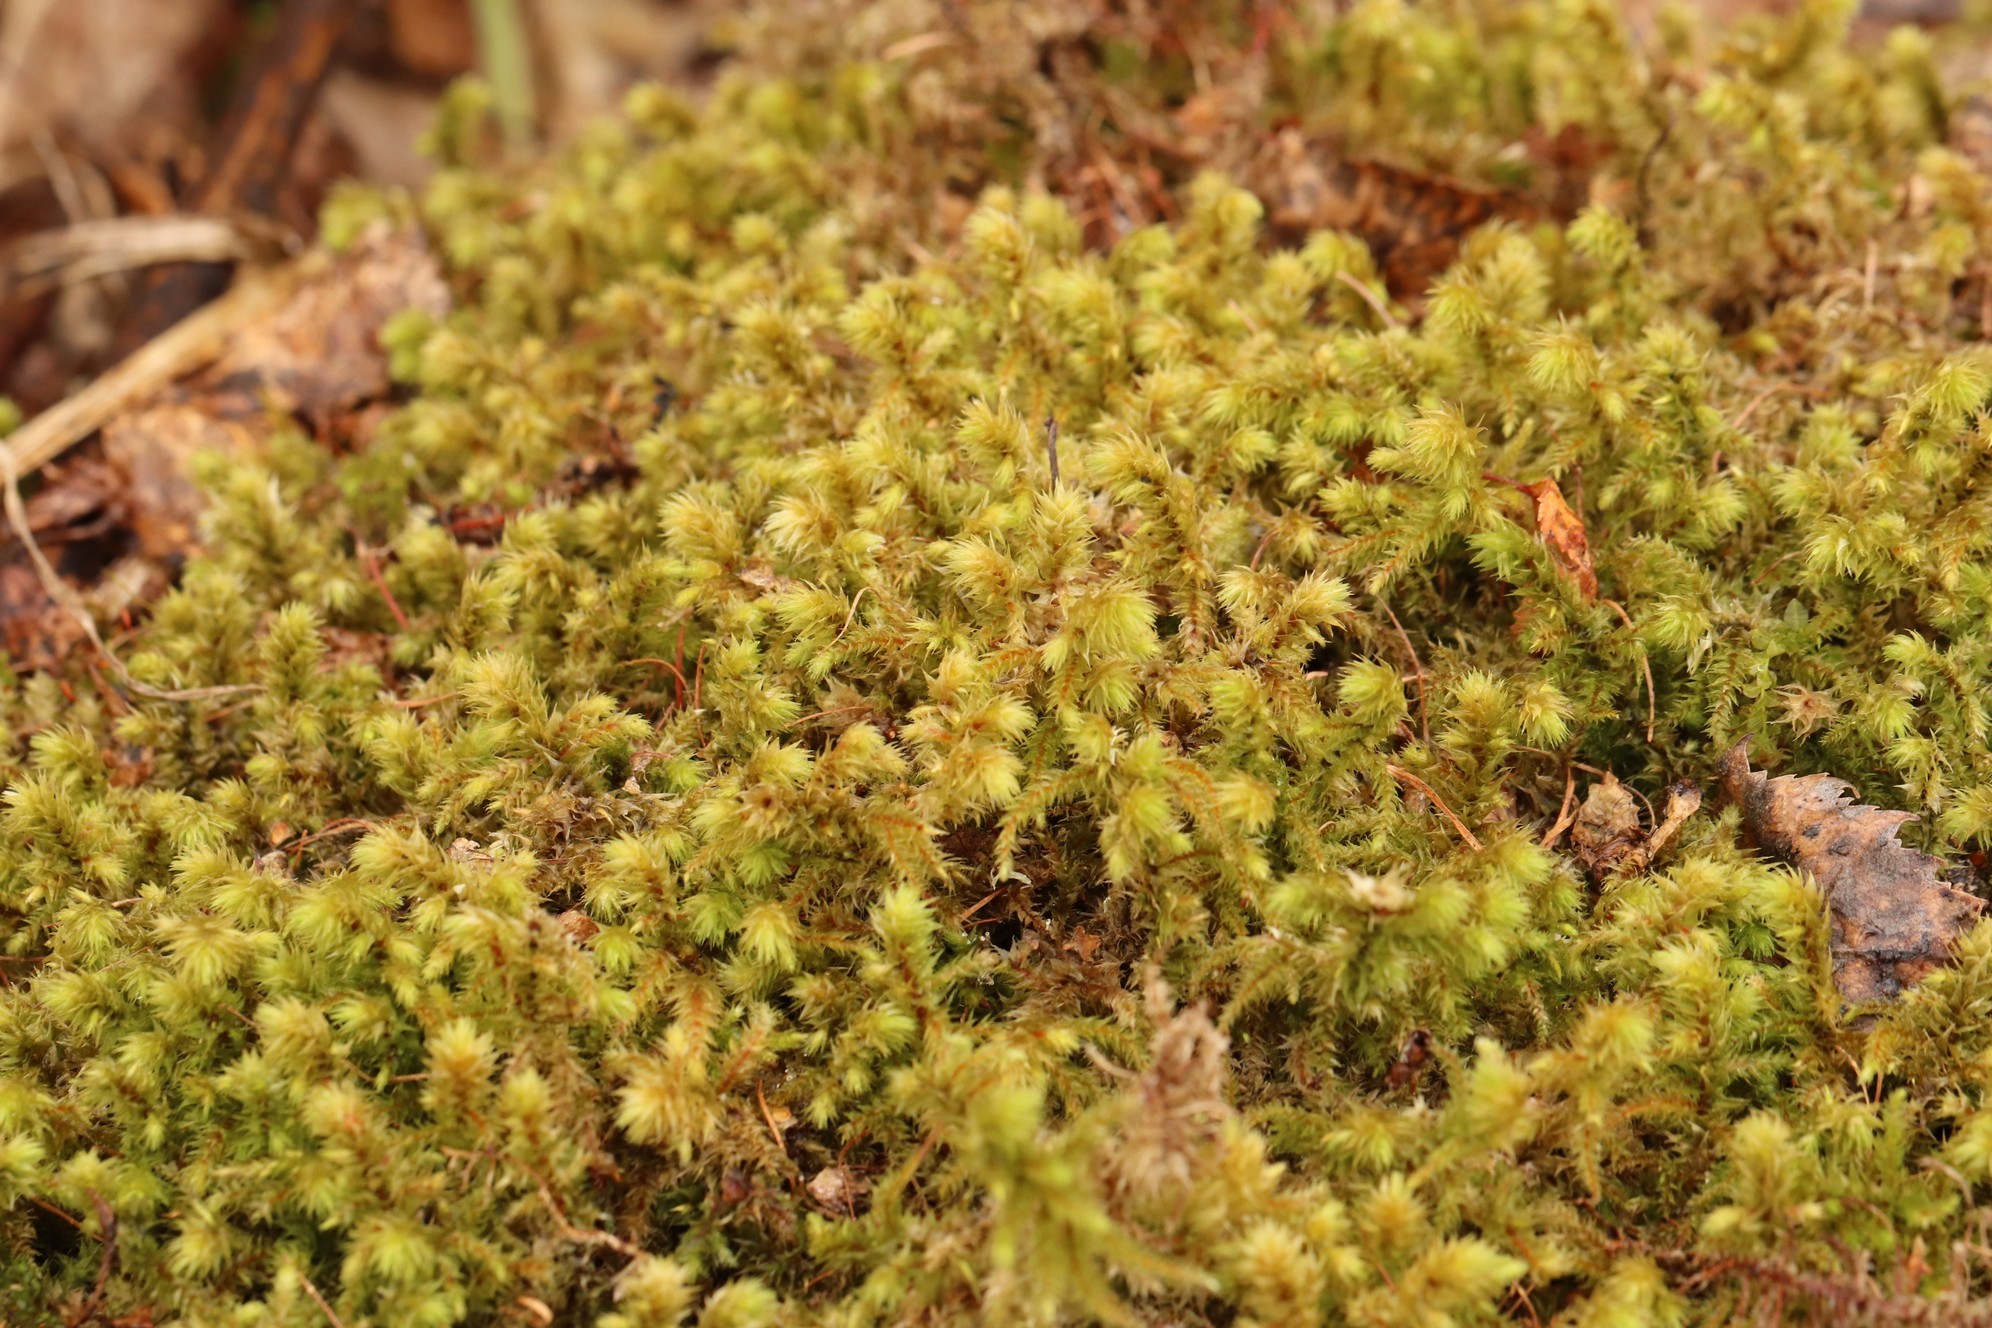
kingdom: Plantae
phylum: Bryophyta
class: Bryopsida
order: Hypnales
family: Hylocomiaceae
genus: Hylocomiadelphus
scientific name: Hylocomiadelphus triquetrus
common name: Rough goose neck moss
